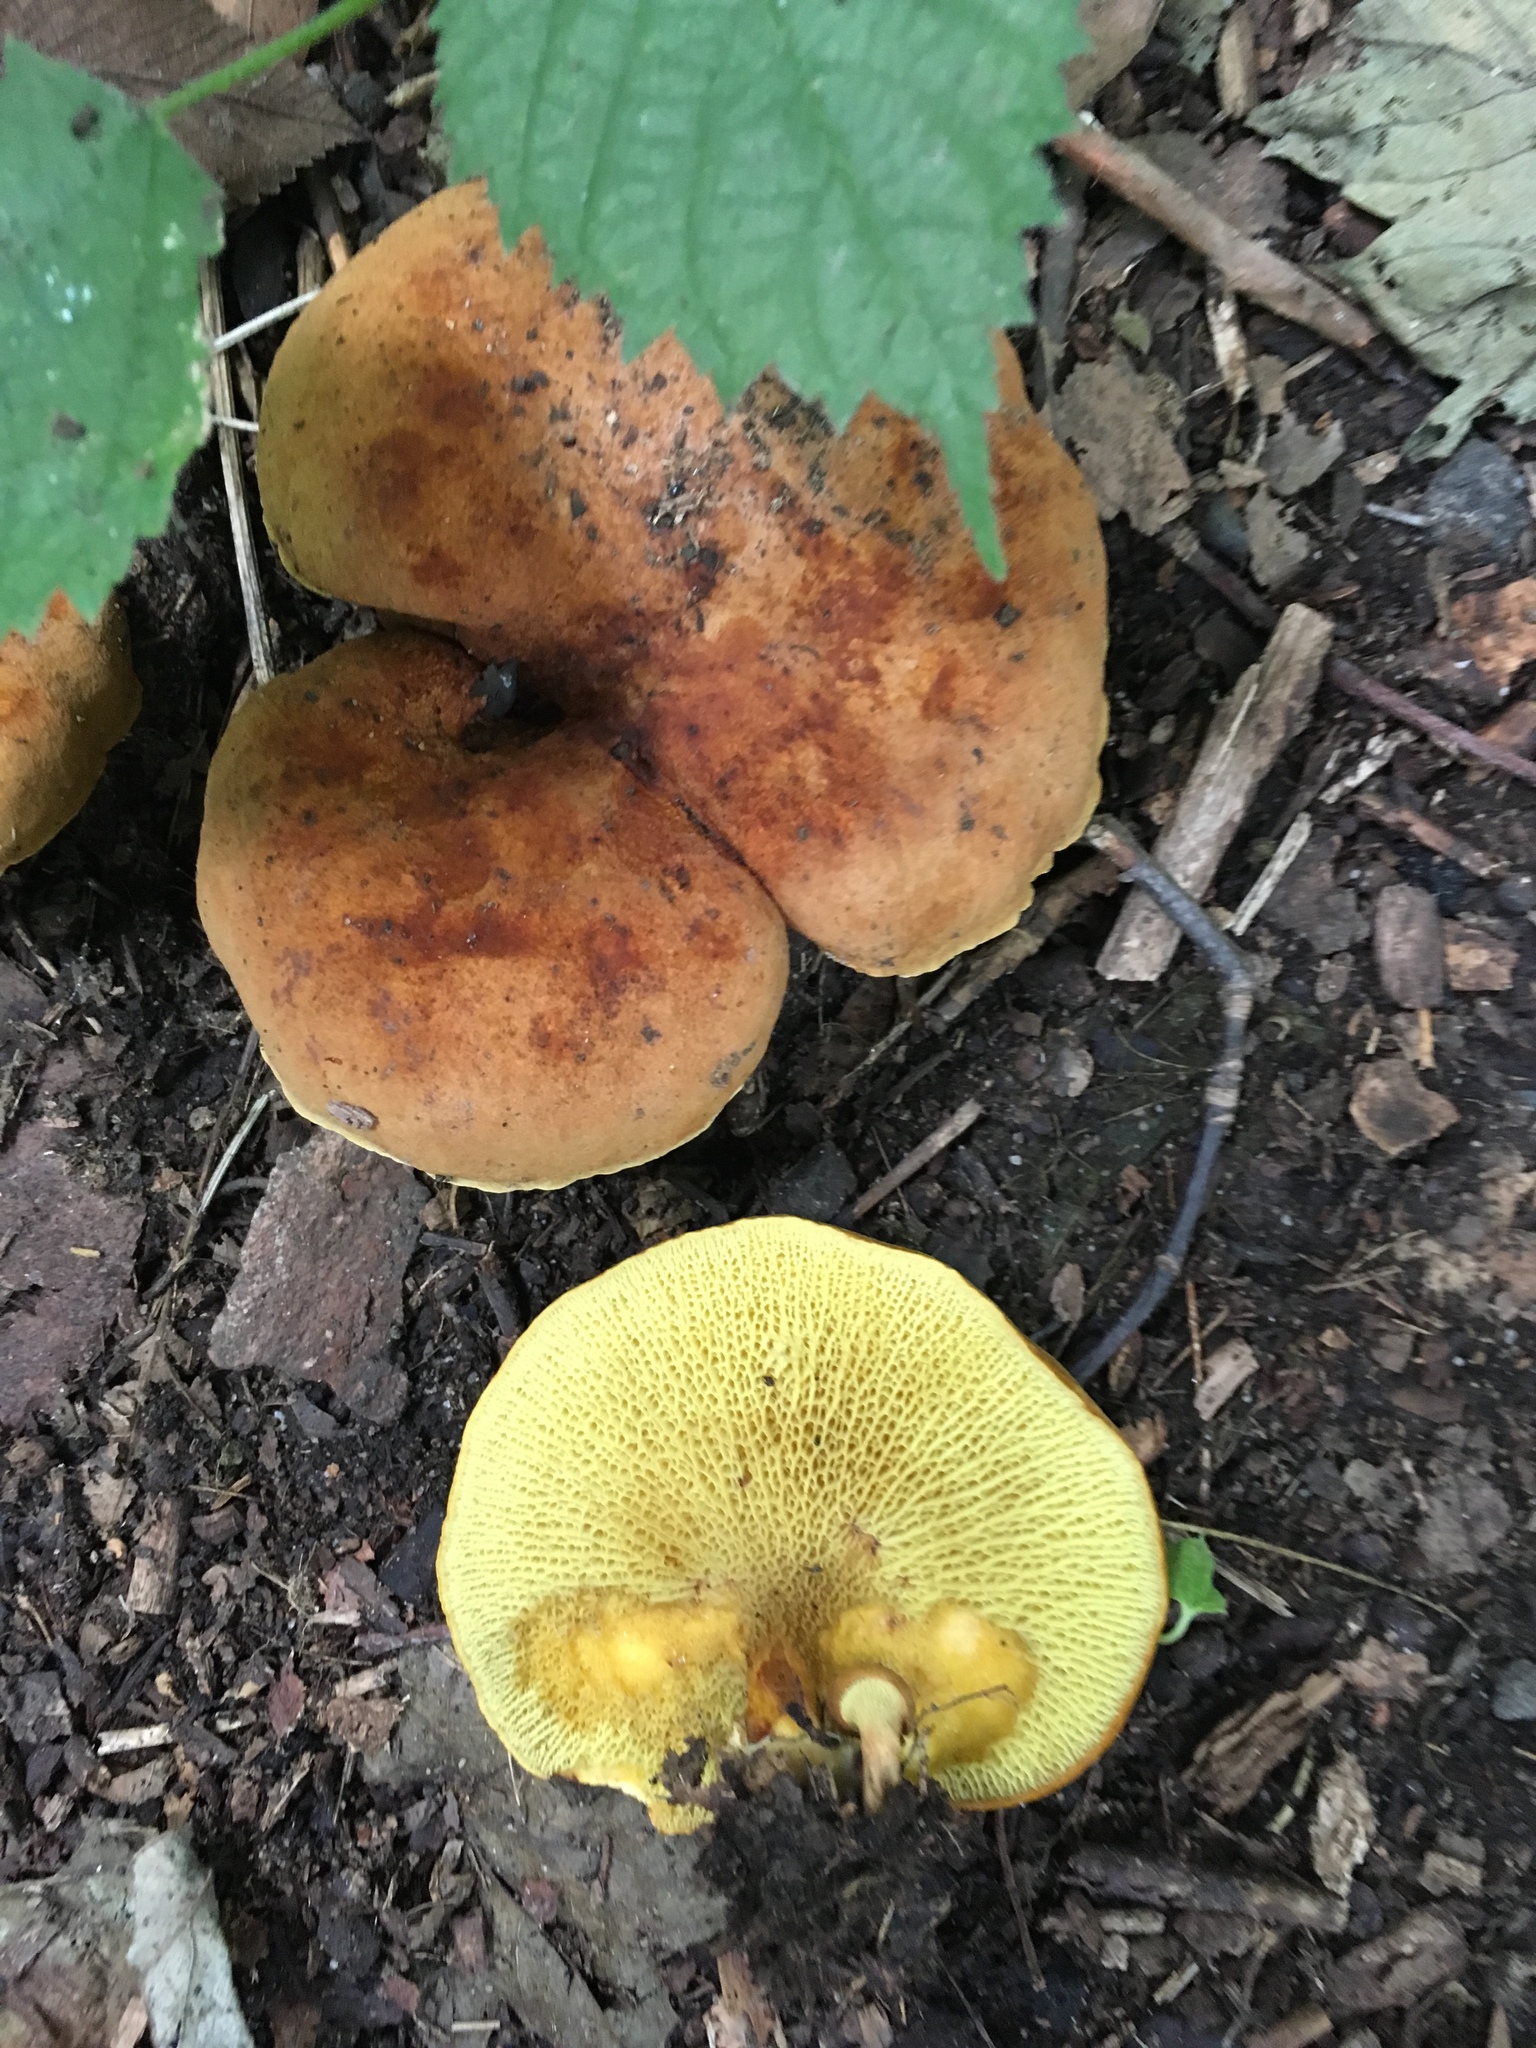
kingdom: Fungi
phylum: Basidiomycota
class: Agaricomycetes
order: Boletales
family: Boletinellaceae
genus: Boletinellus
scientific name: Boletinellus merulioides
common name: Ash tree bolete
